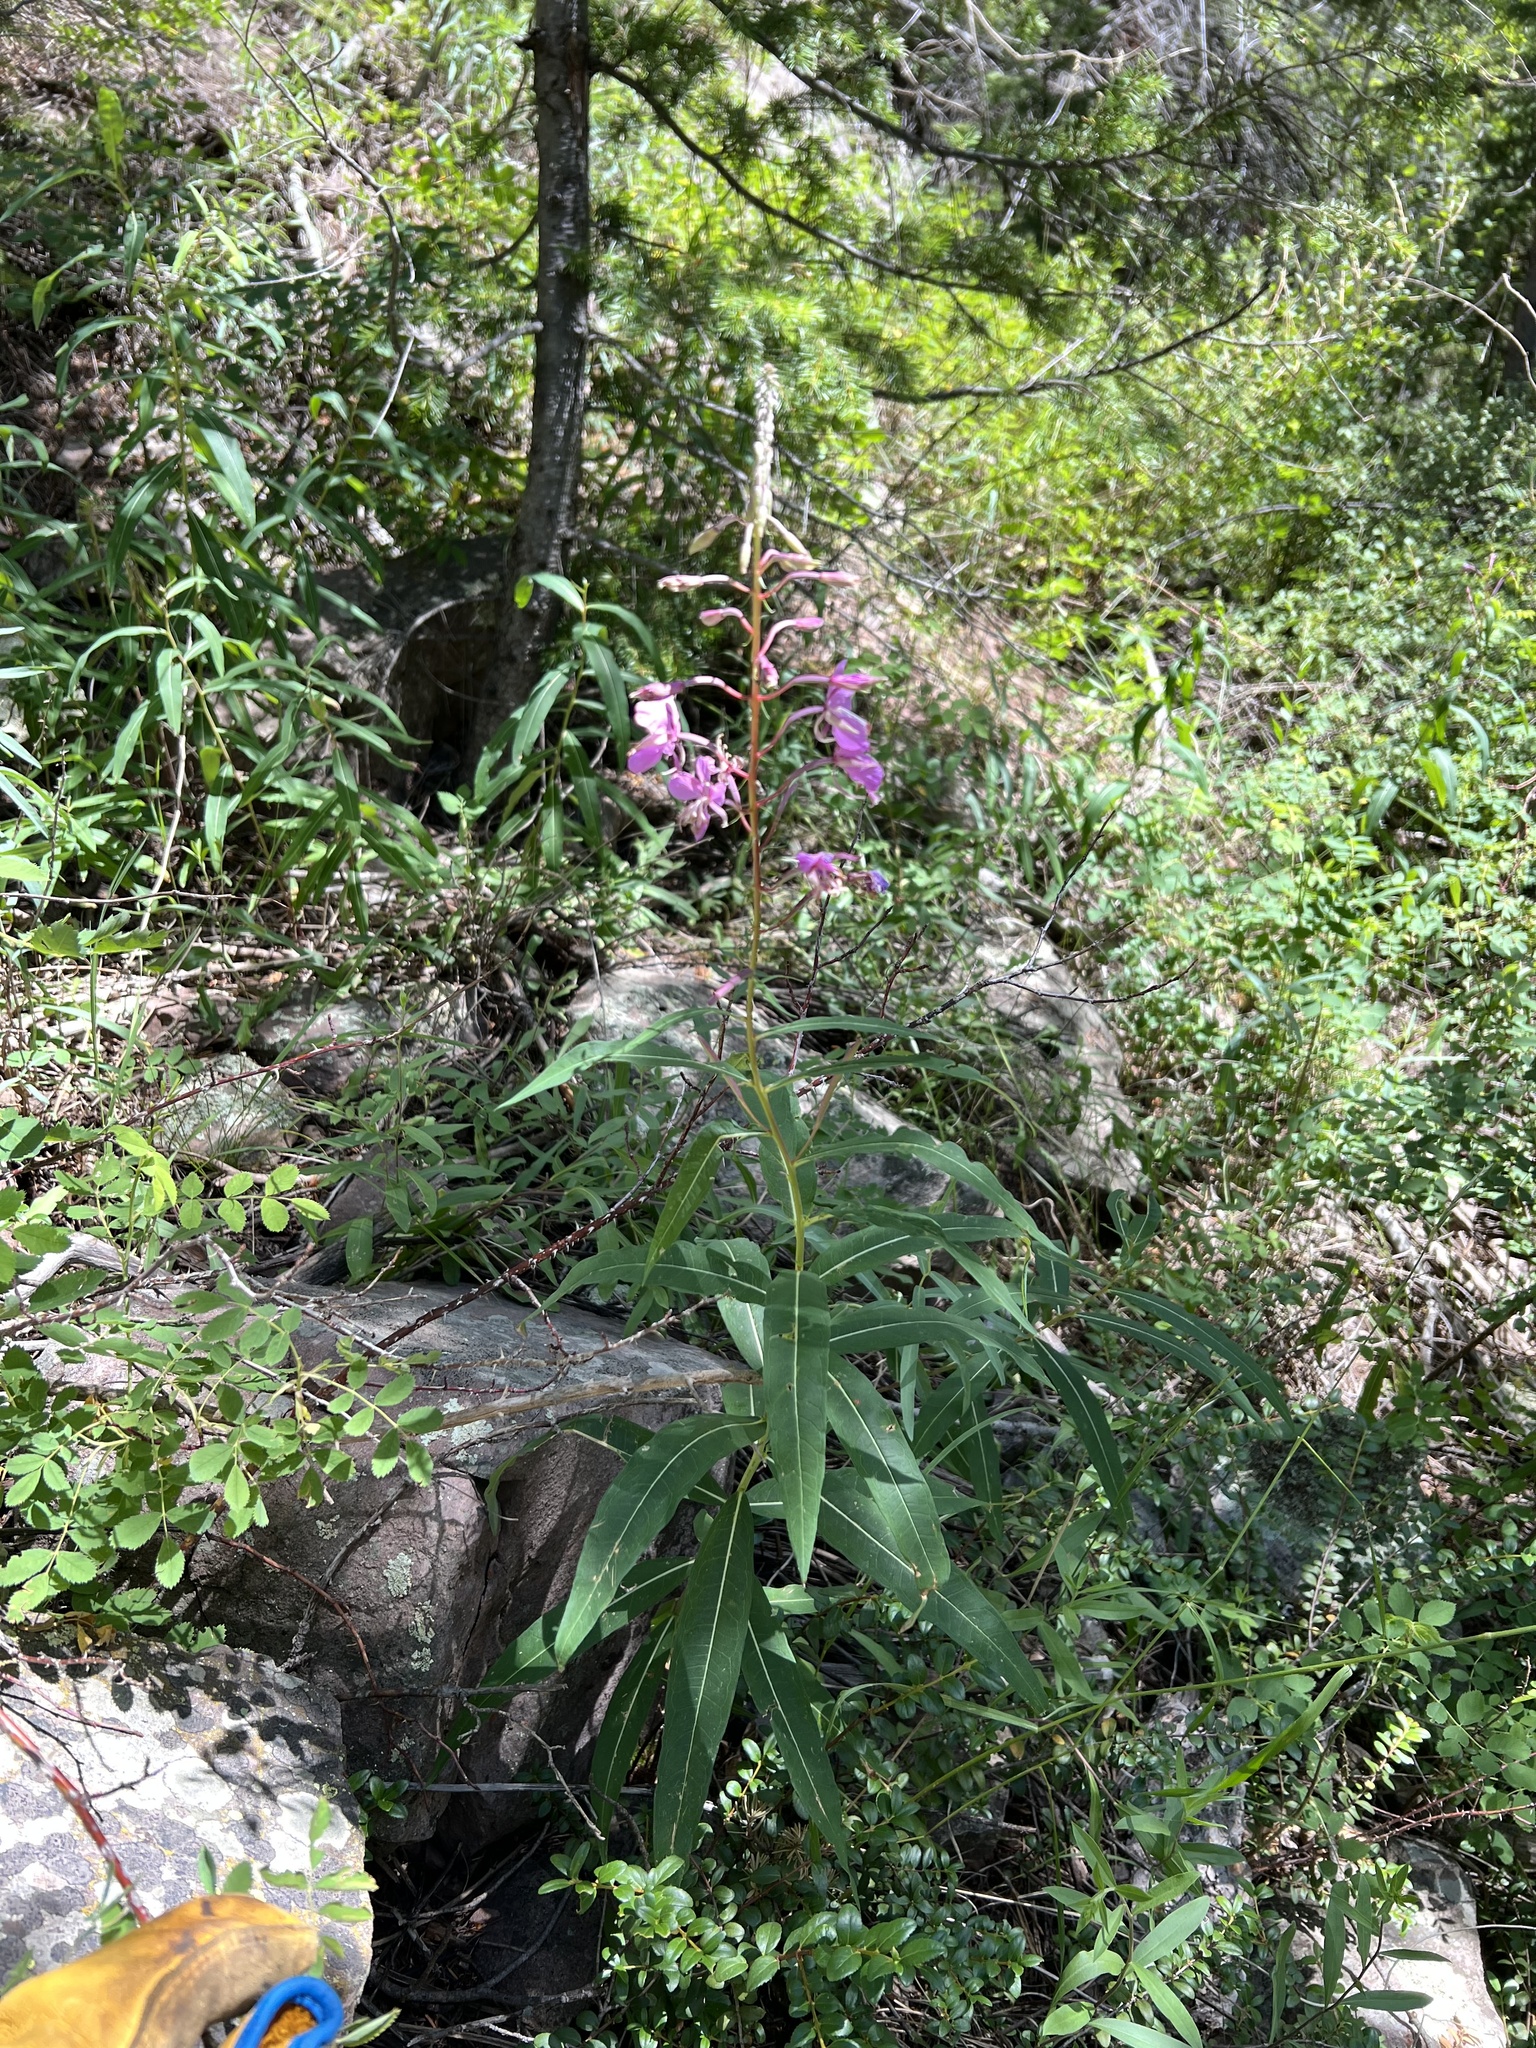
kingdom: Plantae
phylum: Tracheophyta
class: Magnoliopsida
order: Myrtales
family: Onagraceae
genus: Chamaenerion
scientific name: Chamaenerion angustifolium
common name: Fireweed
